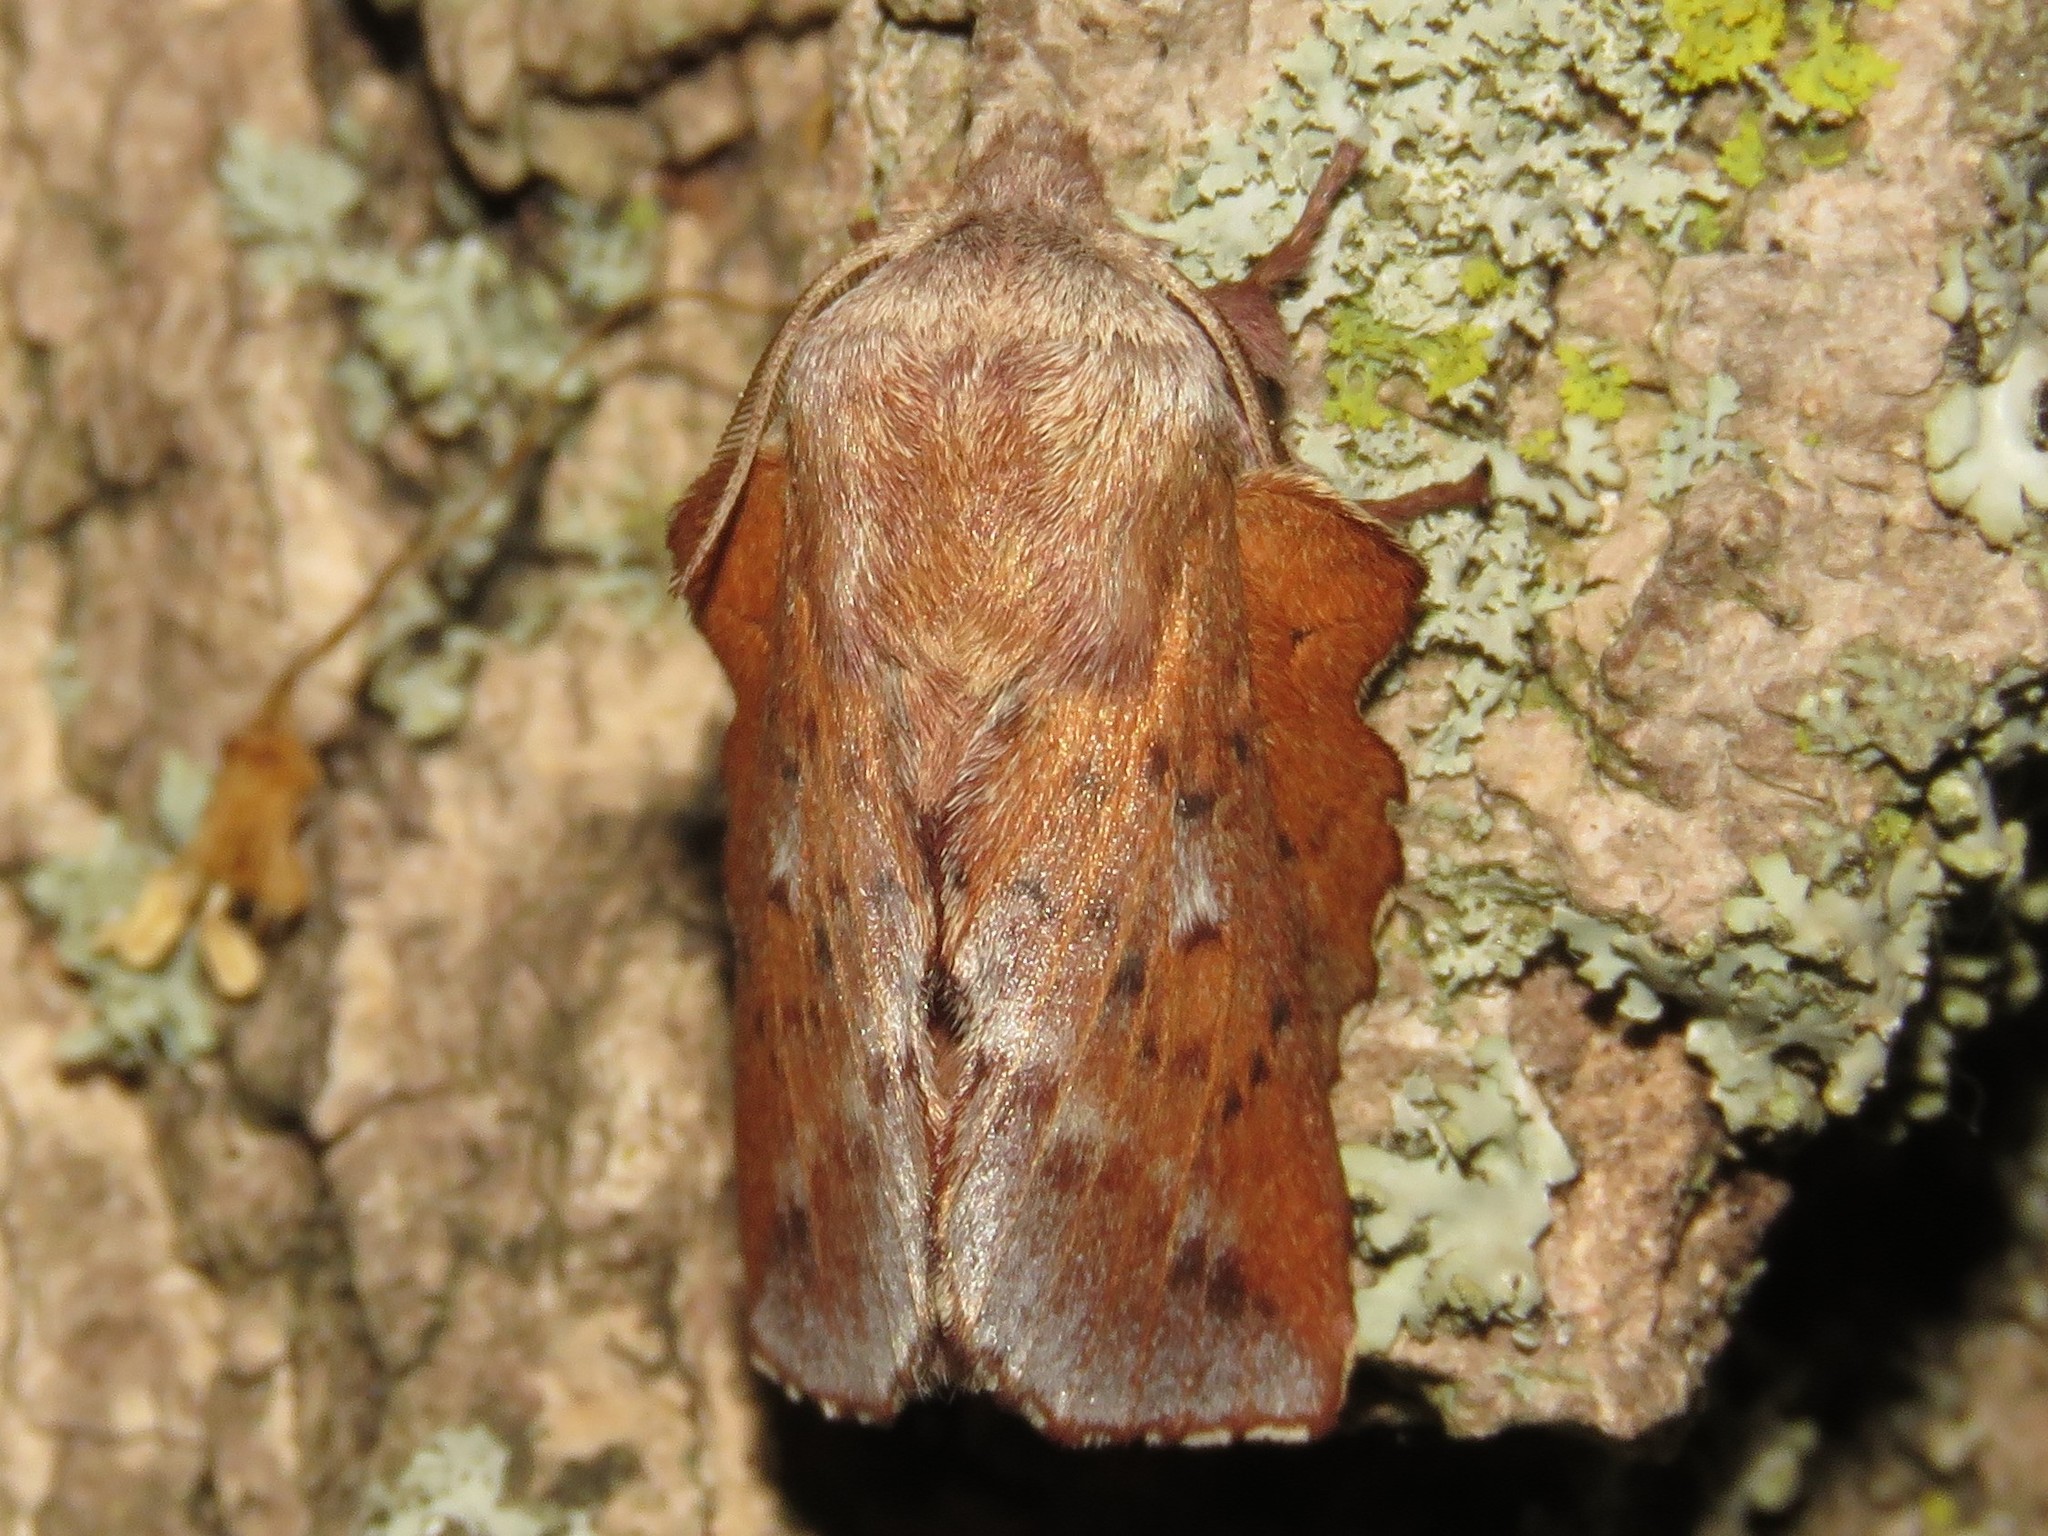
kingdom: Animalia
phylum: Arthropoda
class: Insecta
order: Lepidoptera
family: Lasiocampidae
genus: Phyllodesma
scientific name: Phyllodesma americana
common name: American lappet moth
